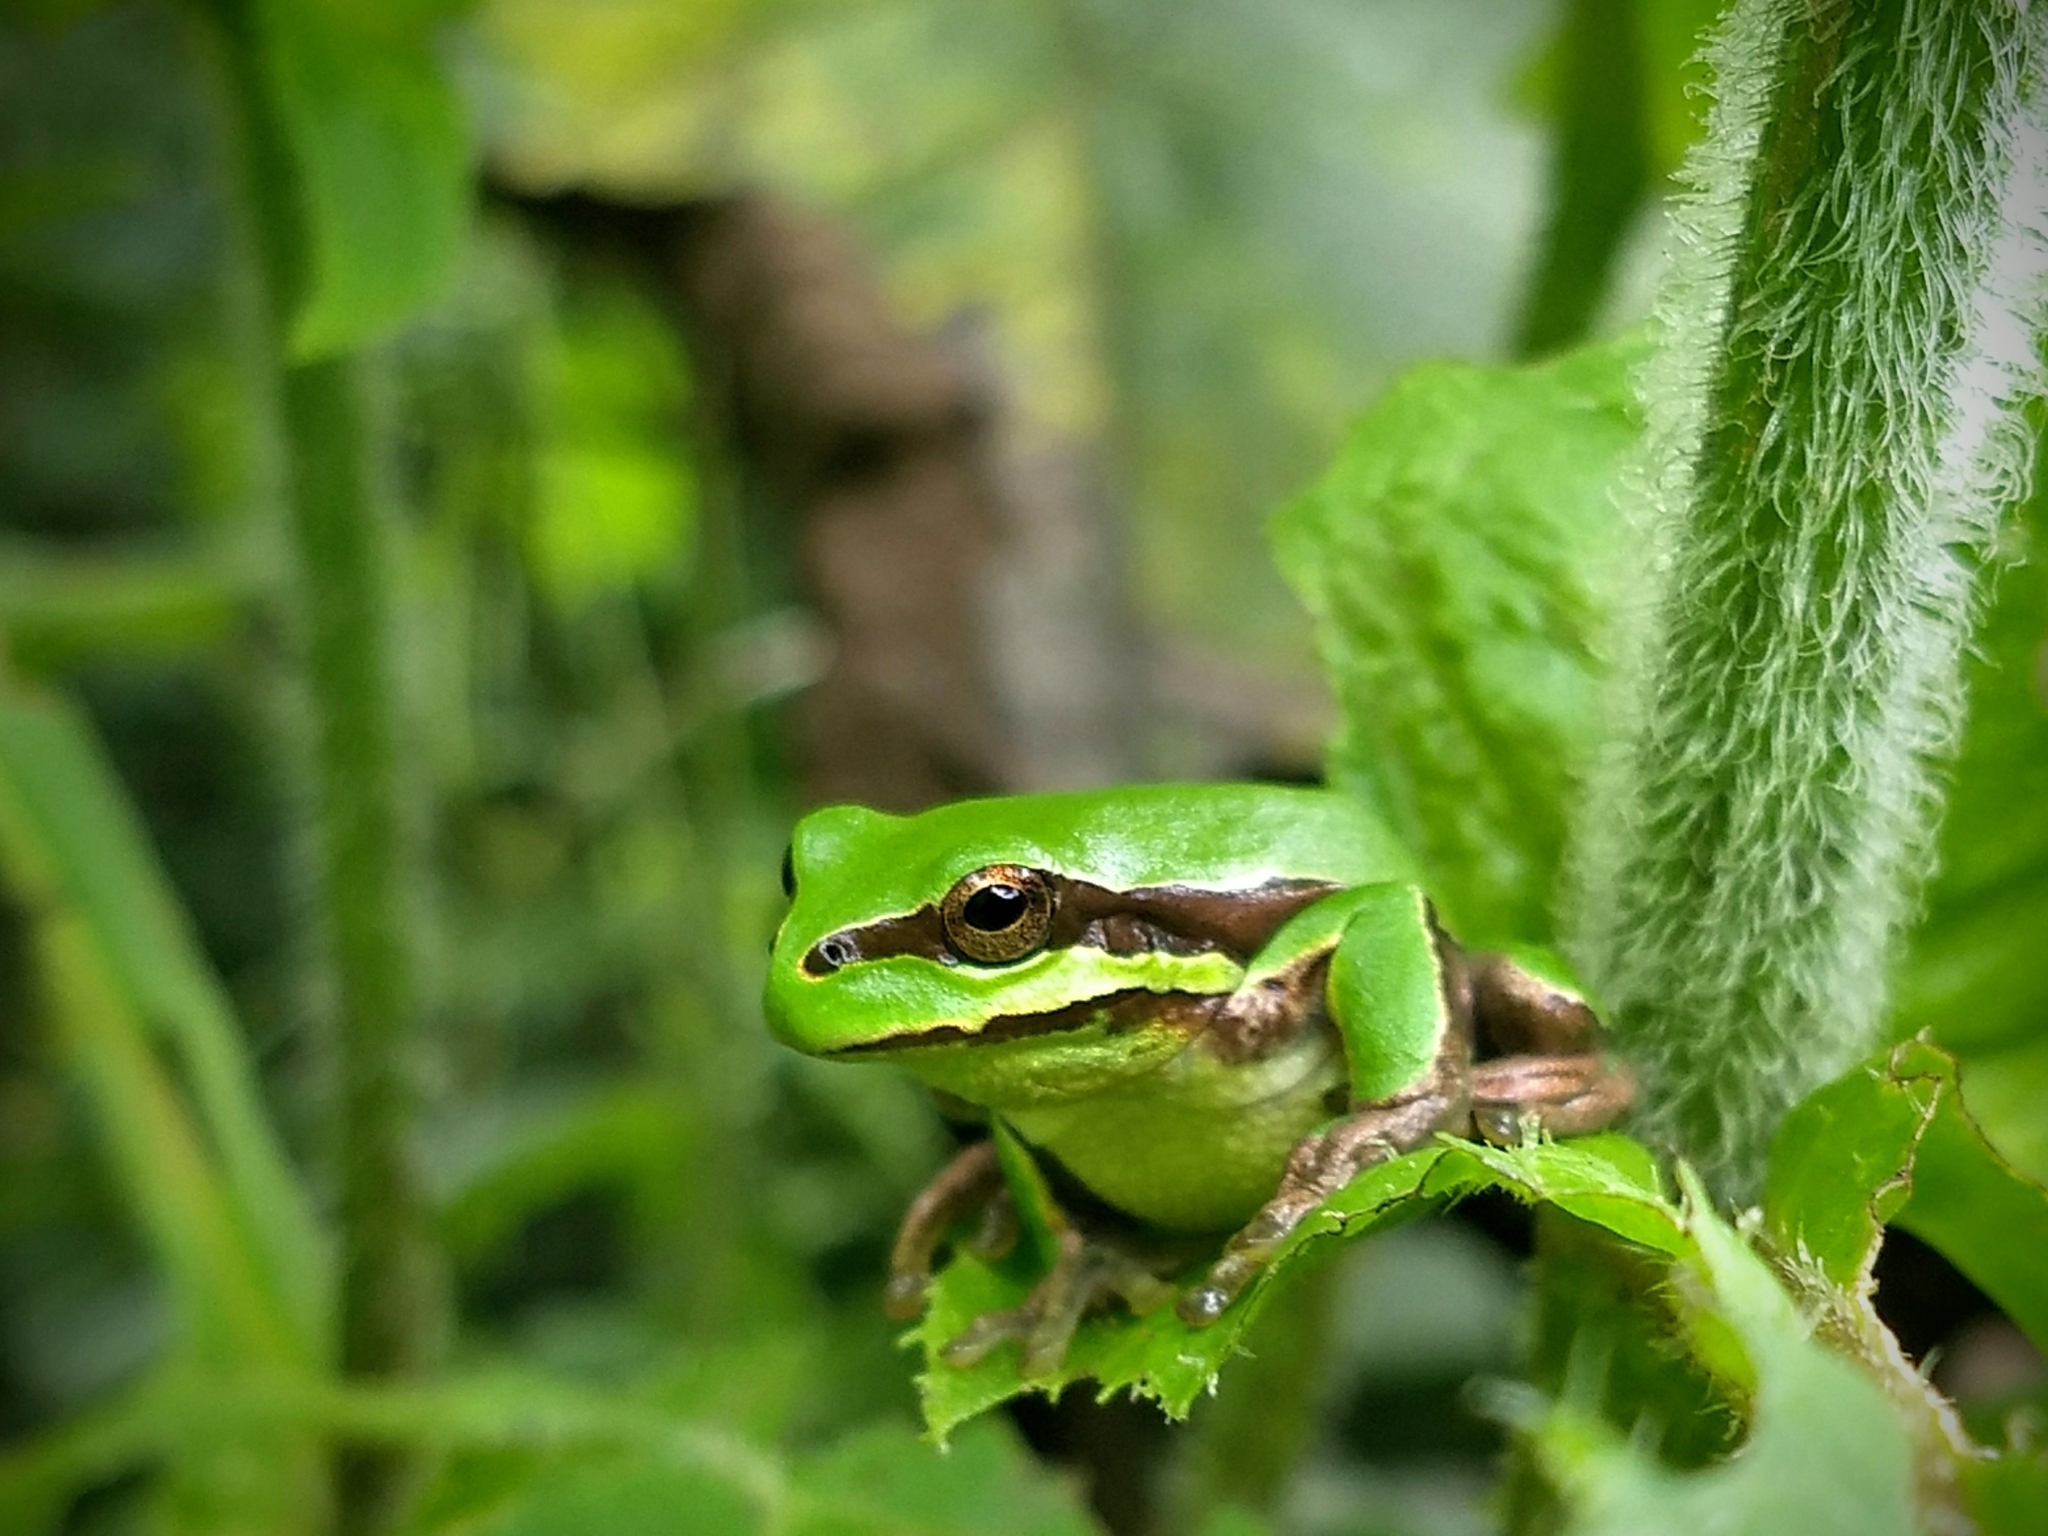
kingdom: Animalia
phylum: Chordata
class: Amphibia
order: Anura
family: Hylidae
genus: Dryophytes
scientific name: Dryophytes eximius
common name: Mountain treefrog
